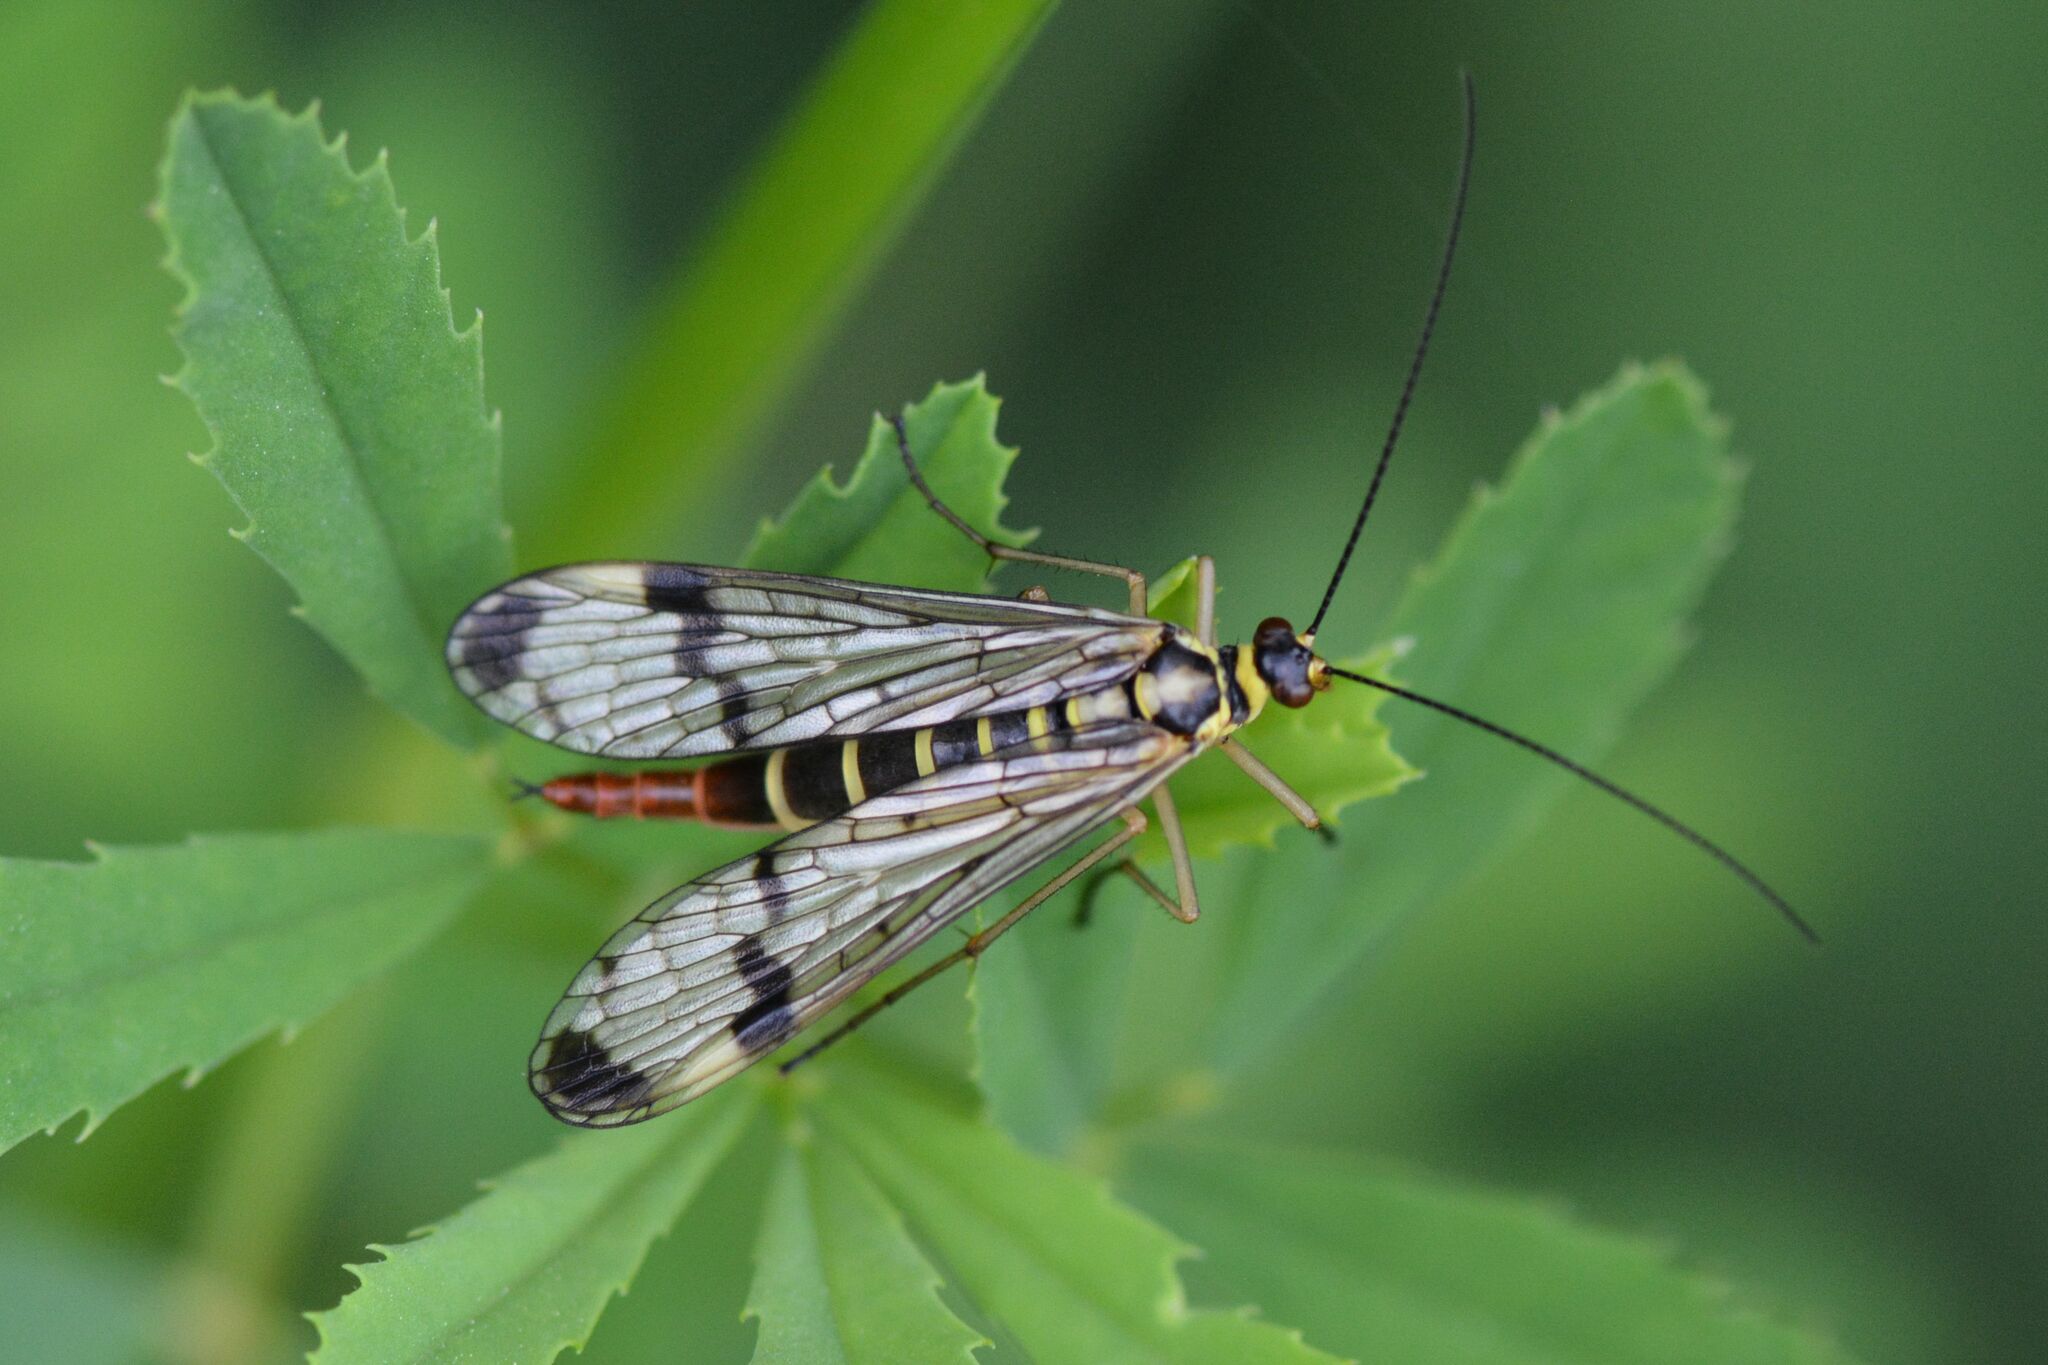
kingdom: Animalia
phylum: Arthropoda
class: Insecta
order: Mecoptera
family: Panorpidae
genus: Panorpa
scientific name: Panorpa communis
